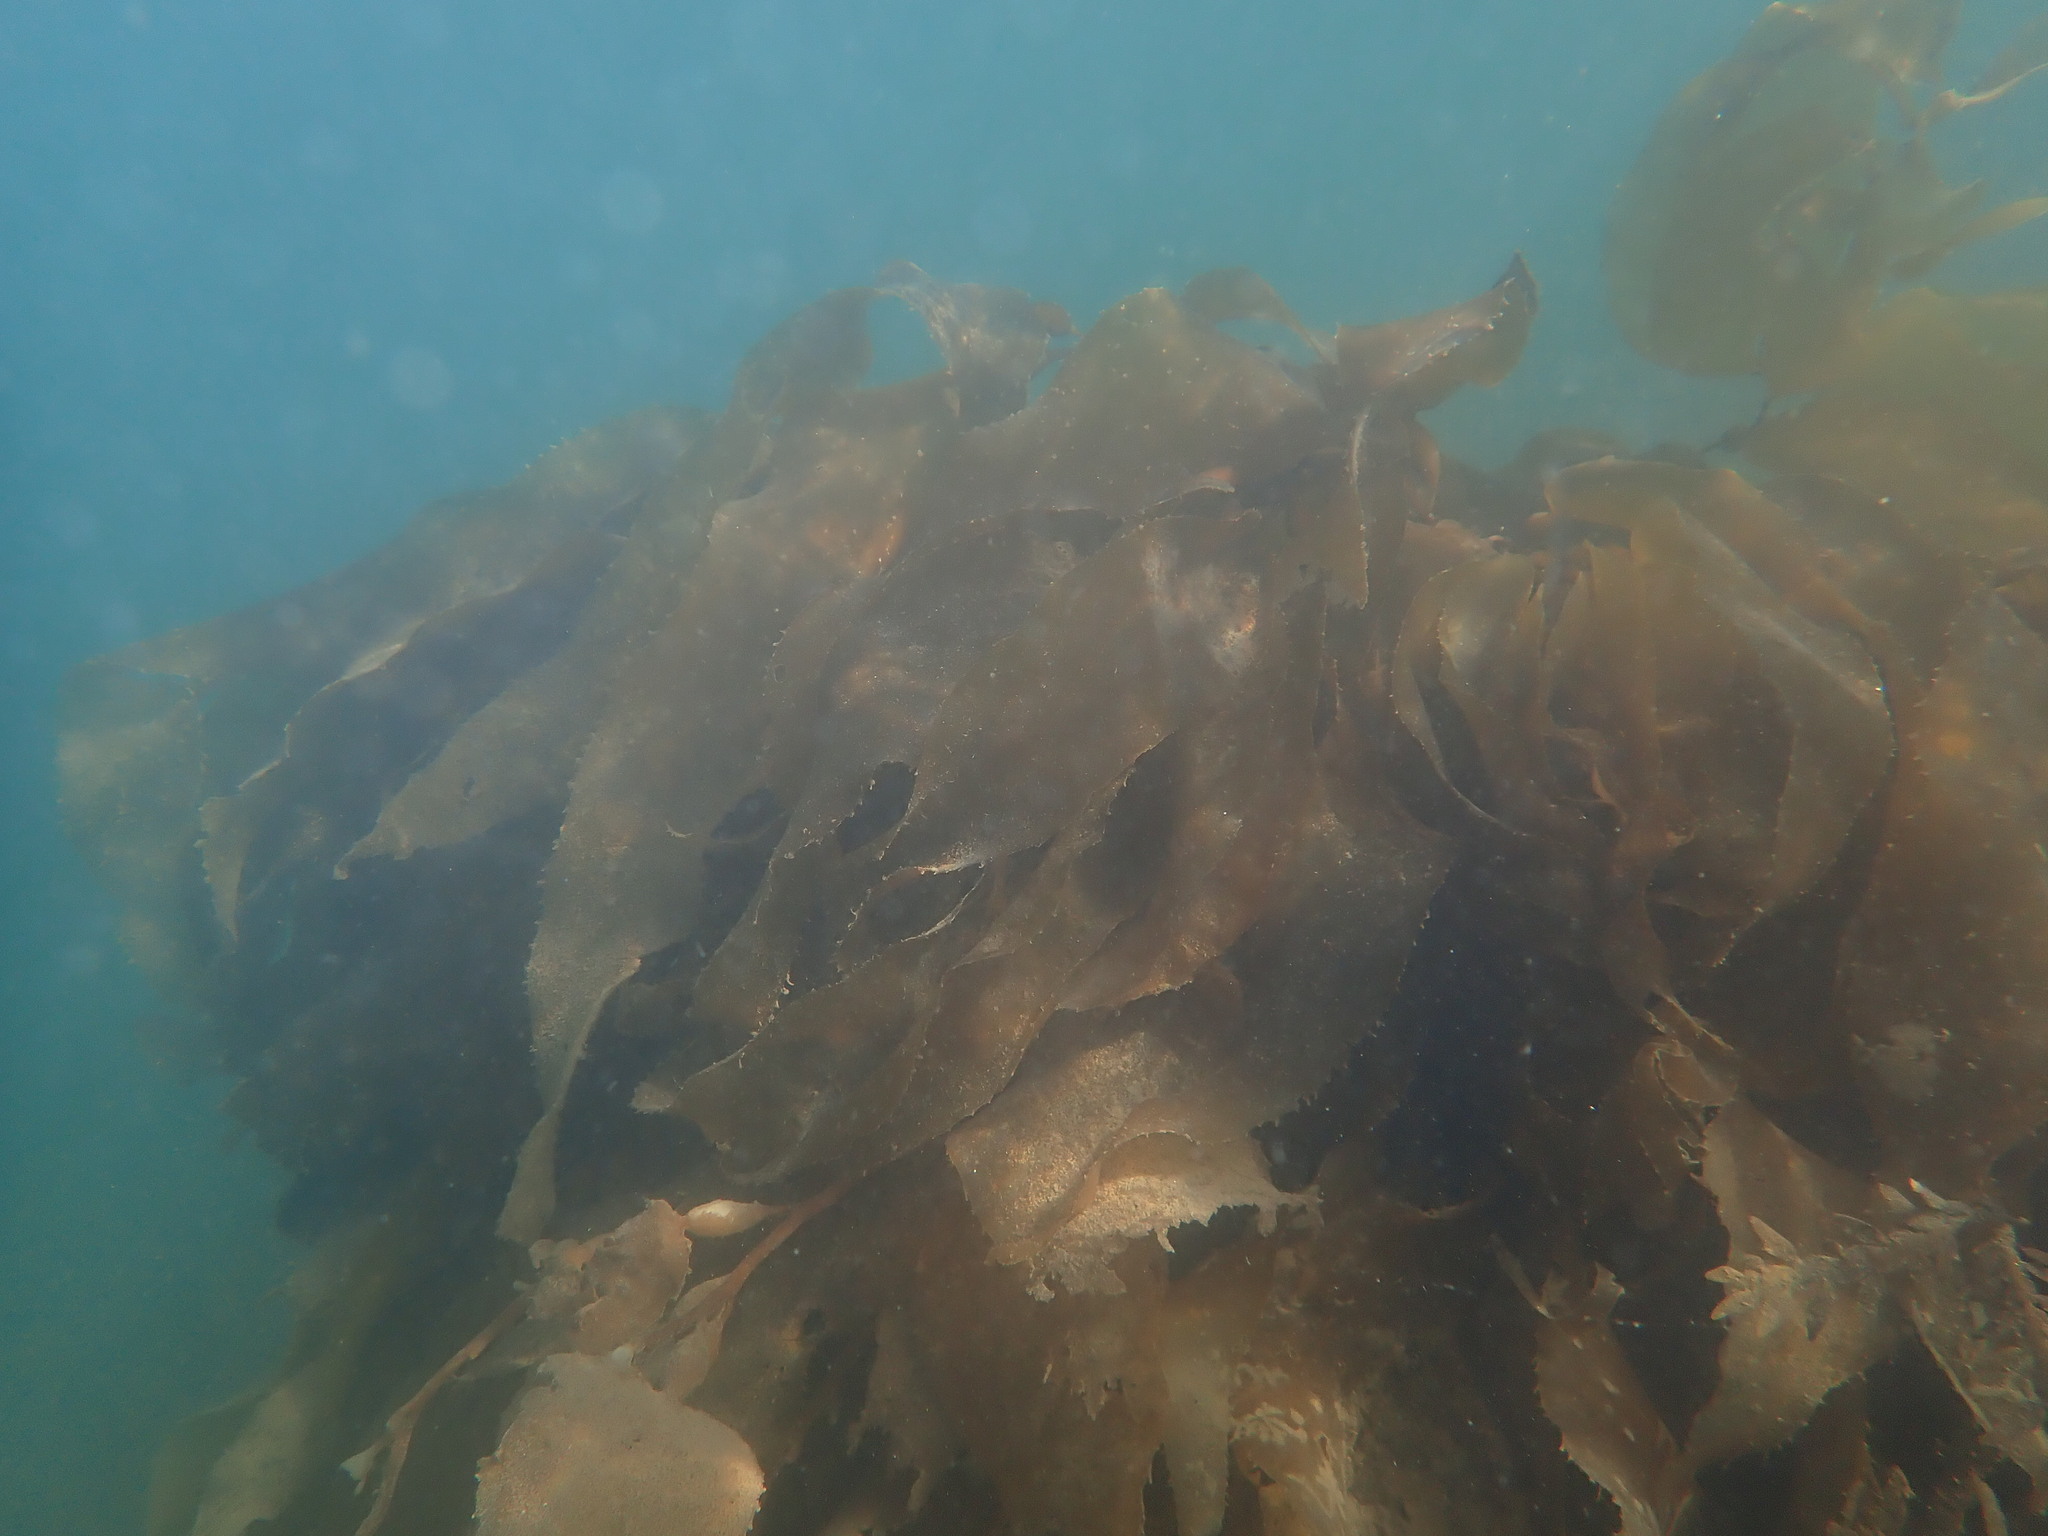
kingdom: Chromista
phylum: Ochrophyta
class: Phaeophyceae
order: Laminariales
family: Laminariaceae
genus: Macrocystis
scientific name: Macrocystis pyrifera
